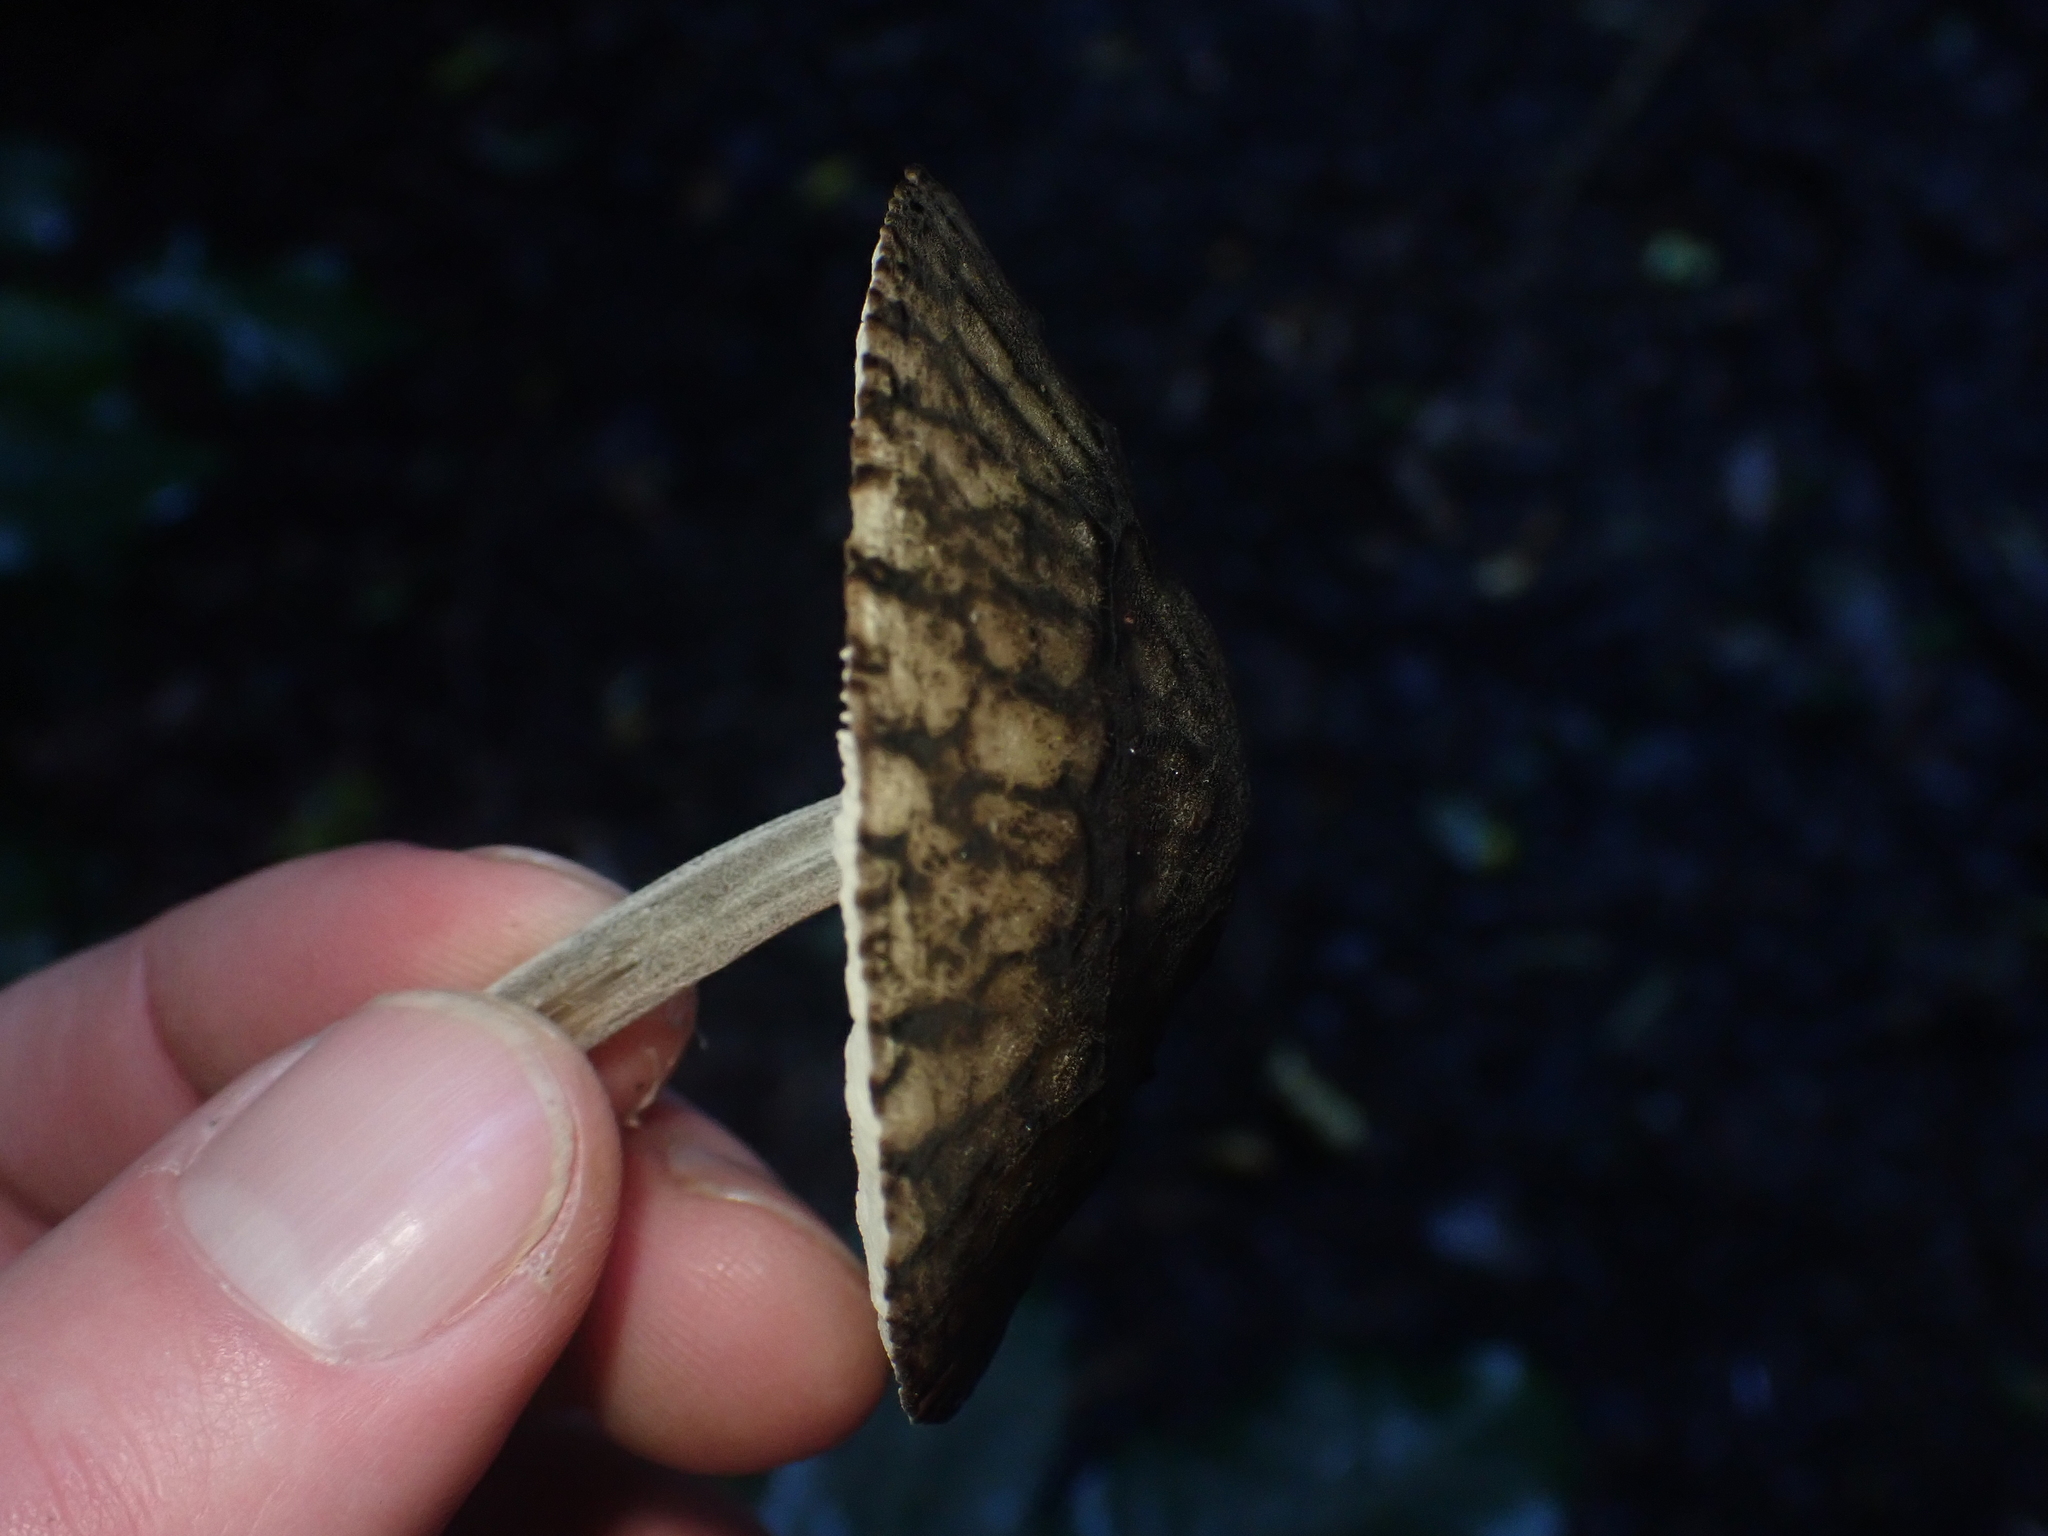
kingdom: Fungi
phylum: Basidiomycota
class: Agaricomycetes
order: Agaricales
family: Pluteaceae
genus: Pluteus
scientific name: Pluteus readiarum
